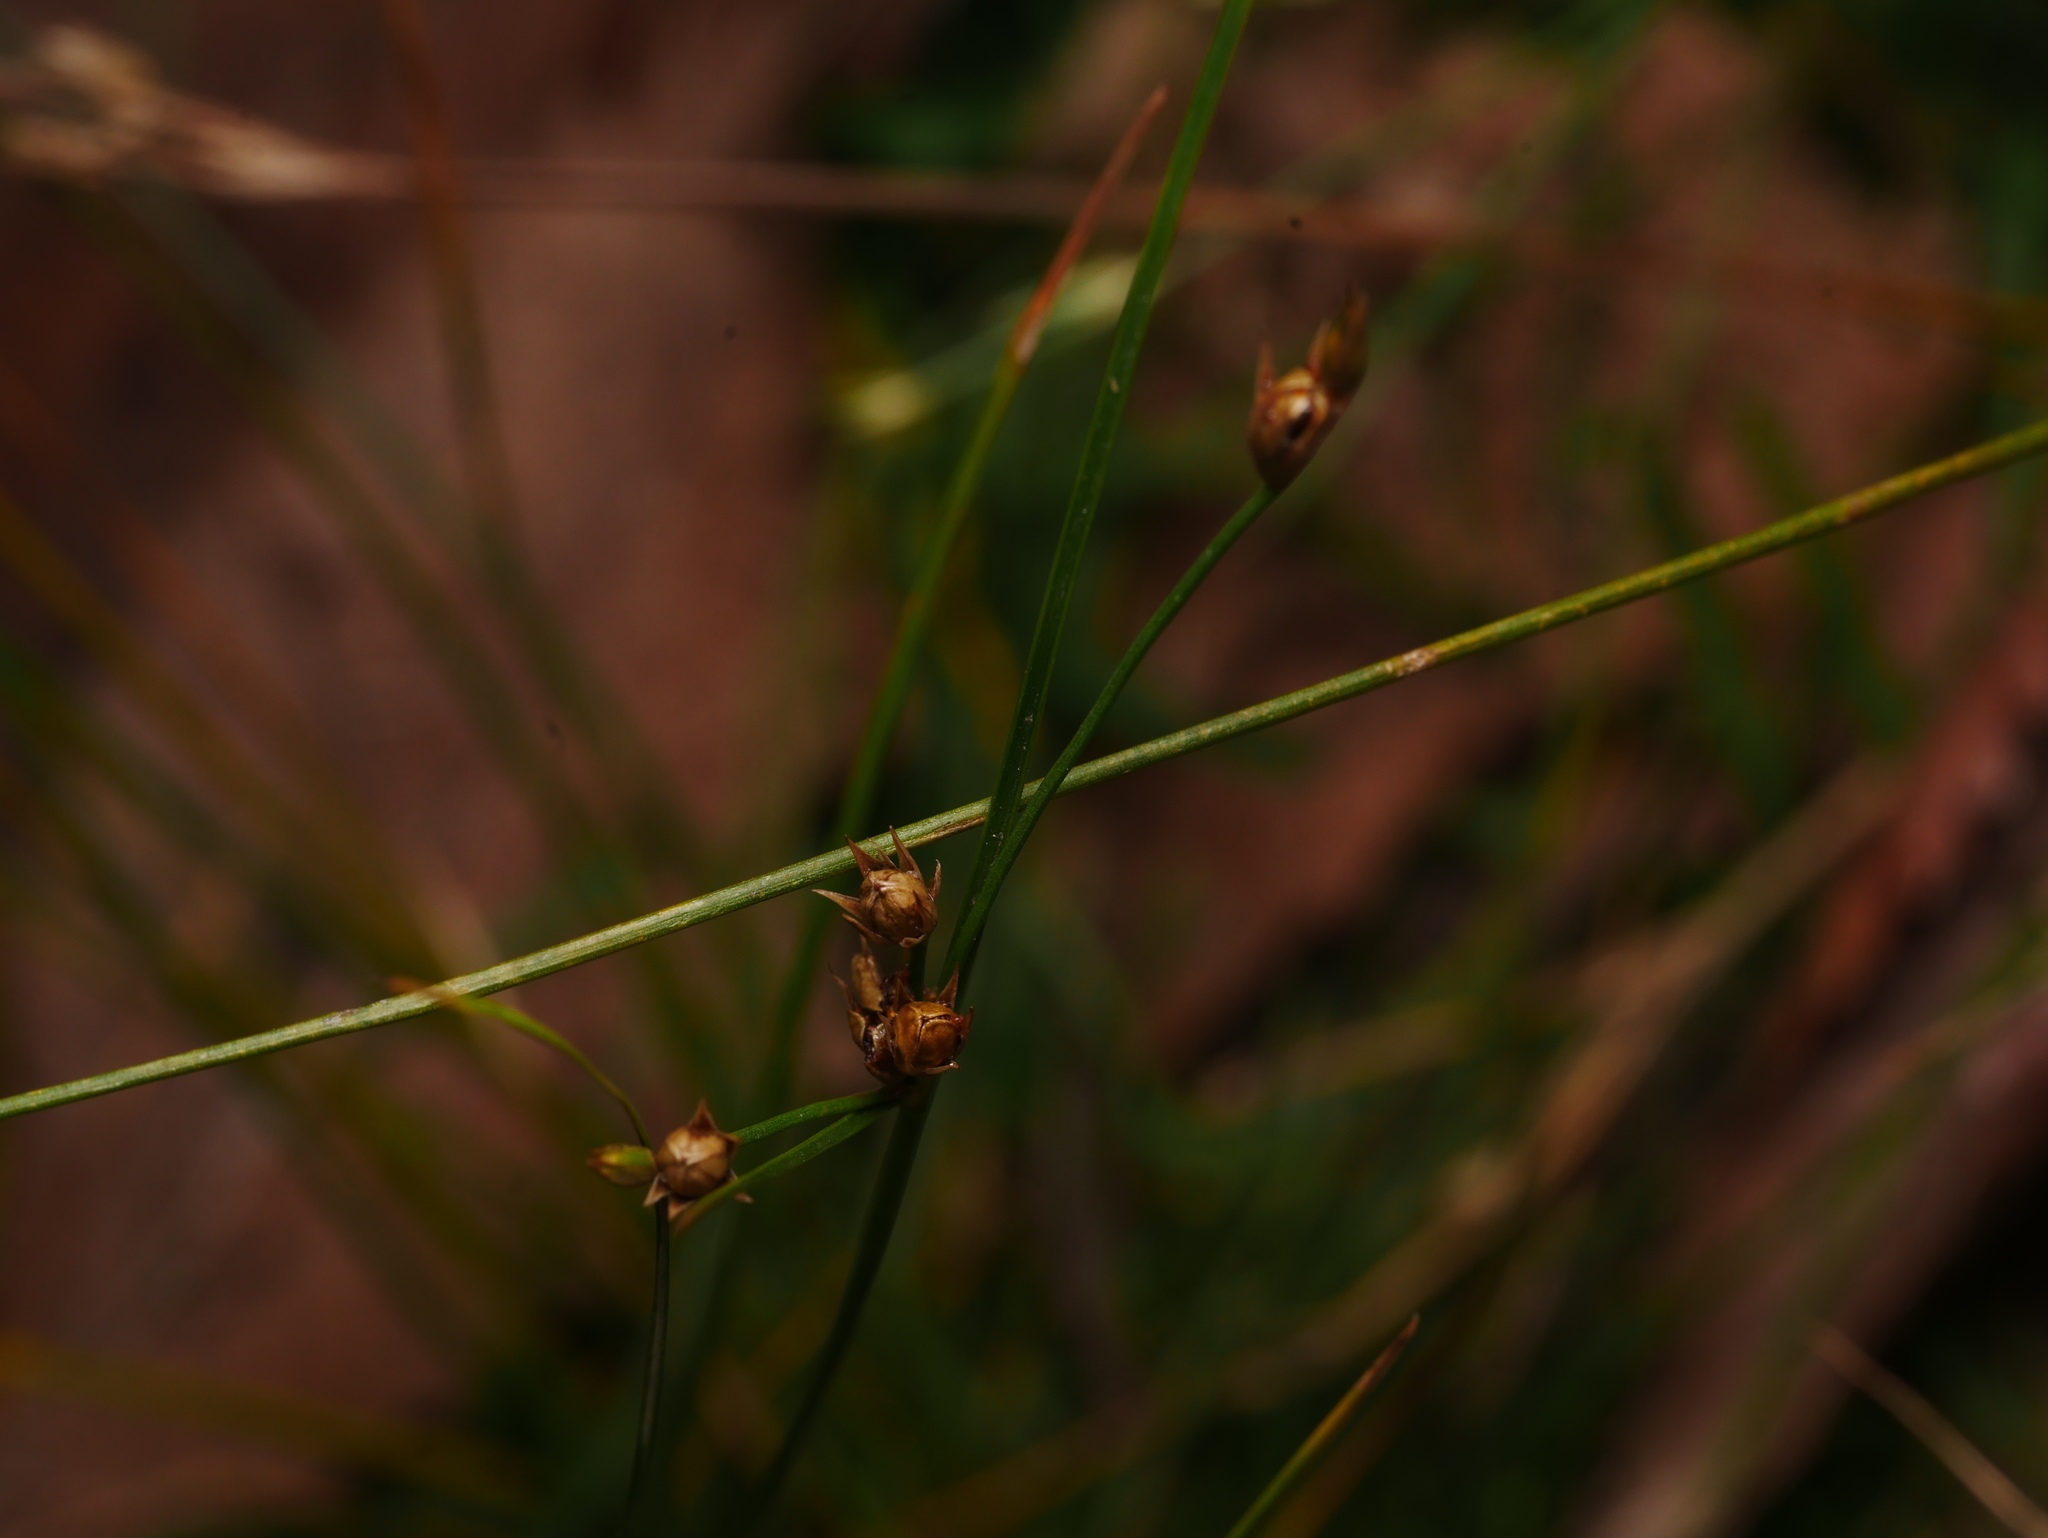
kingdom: Plantae
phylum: Tracheophyta
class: Liliopsida
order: Poales
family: Juncaceae
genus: Juncus
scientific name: Juncus tenuis
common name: Slender rush
